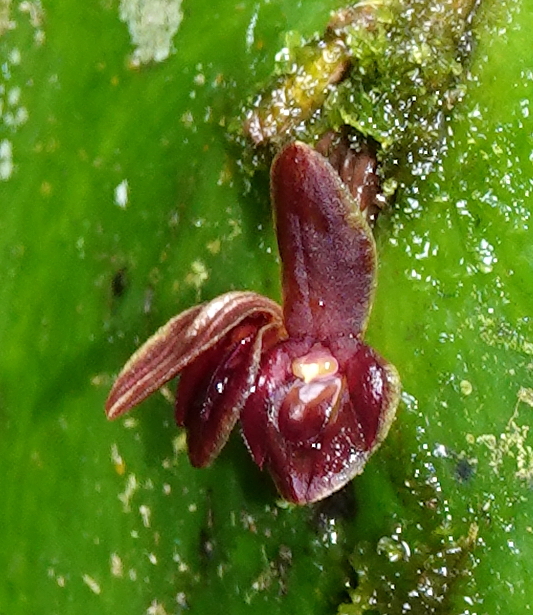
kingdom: Plantae
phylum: Tracheophyta
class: Liliopsida
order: Asparagales
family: Orchidaceae
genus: Pleurothallis
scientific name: Pleurothallis cordata
